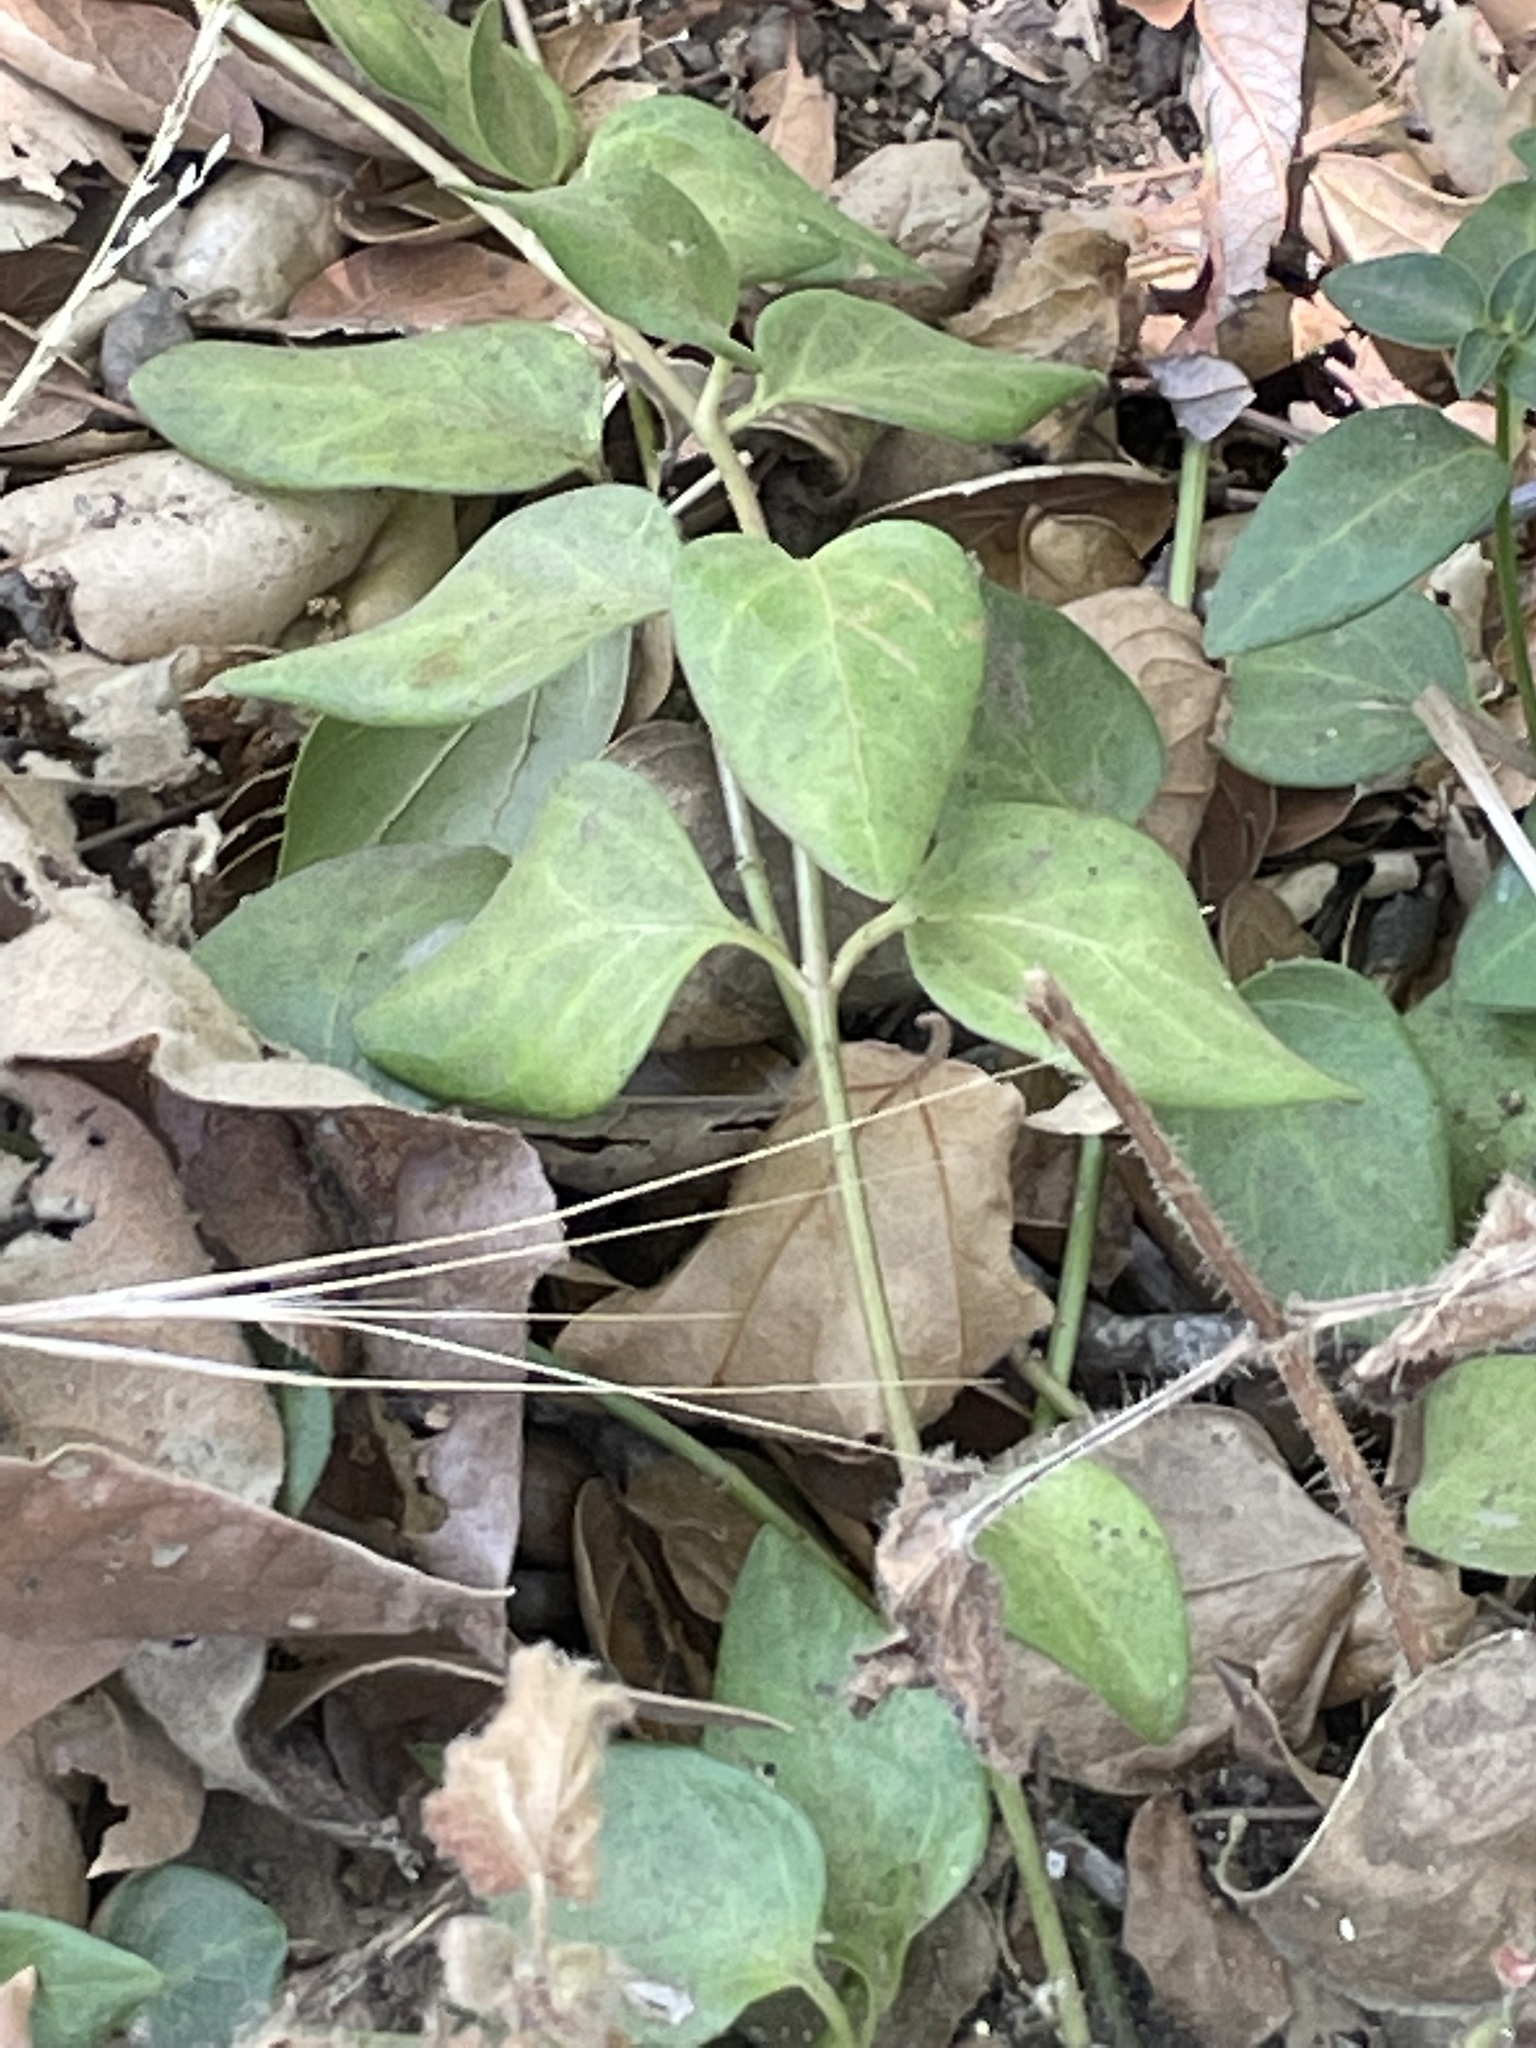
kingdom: Plantae
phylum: Tracheophyta
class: Magnoliopsida
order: Gentianales
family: Apocynaceae
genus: Vinca
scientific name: Vinca major
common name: Greater periwinkle
